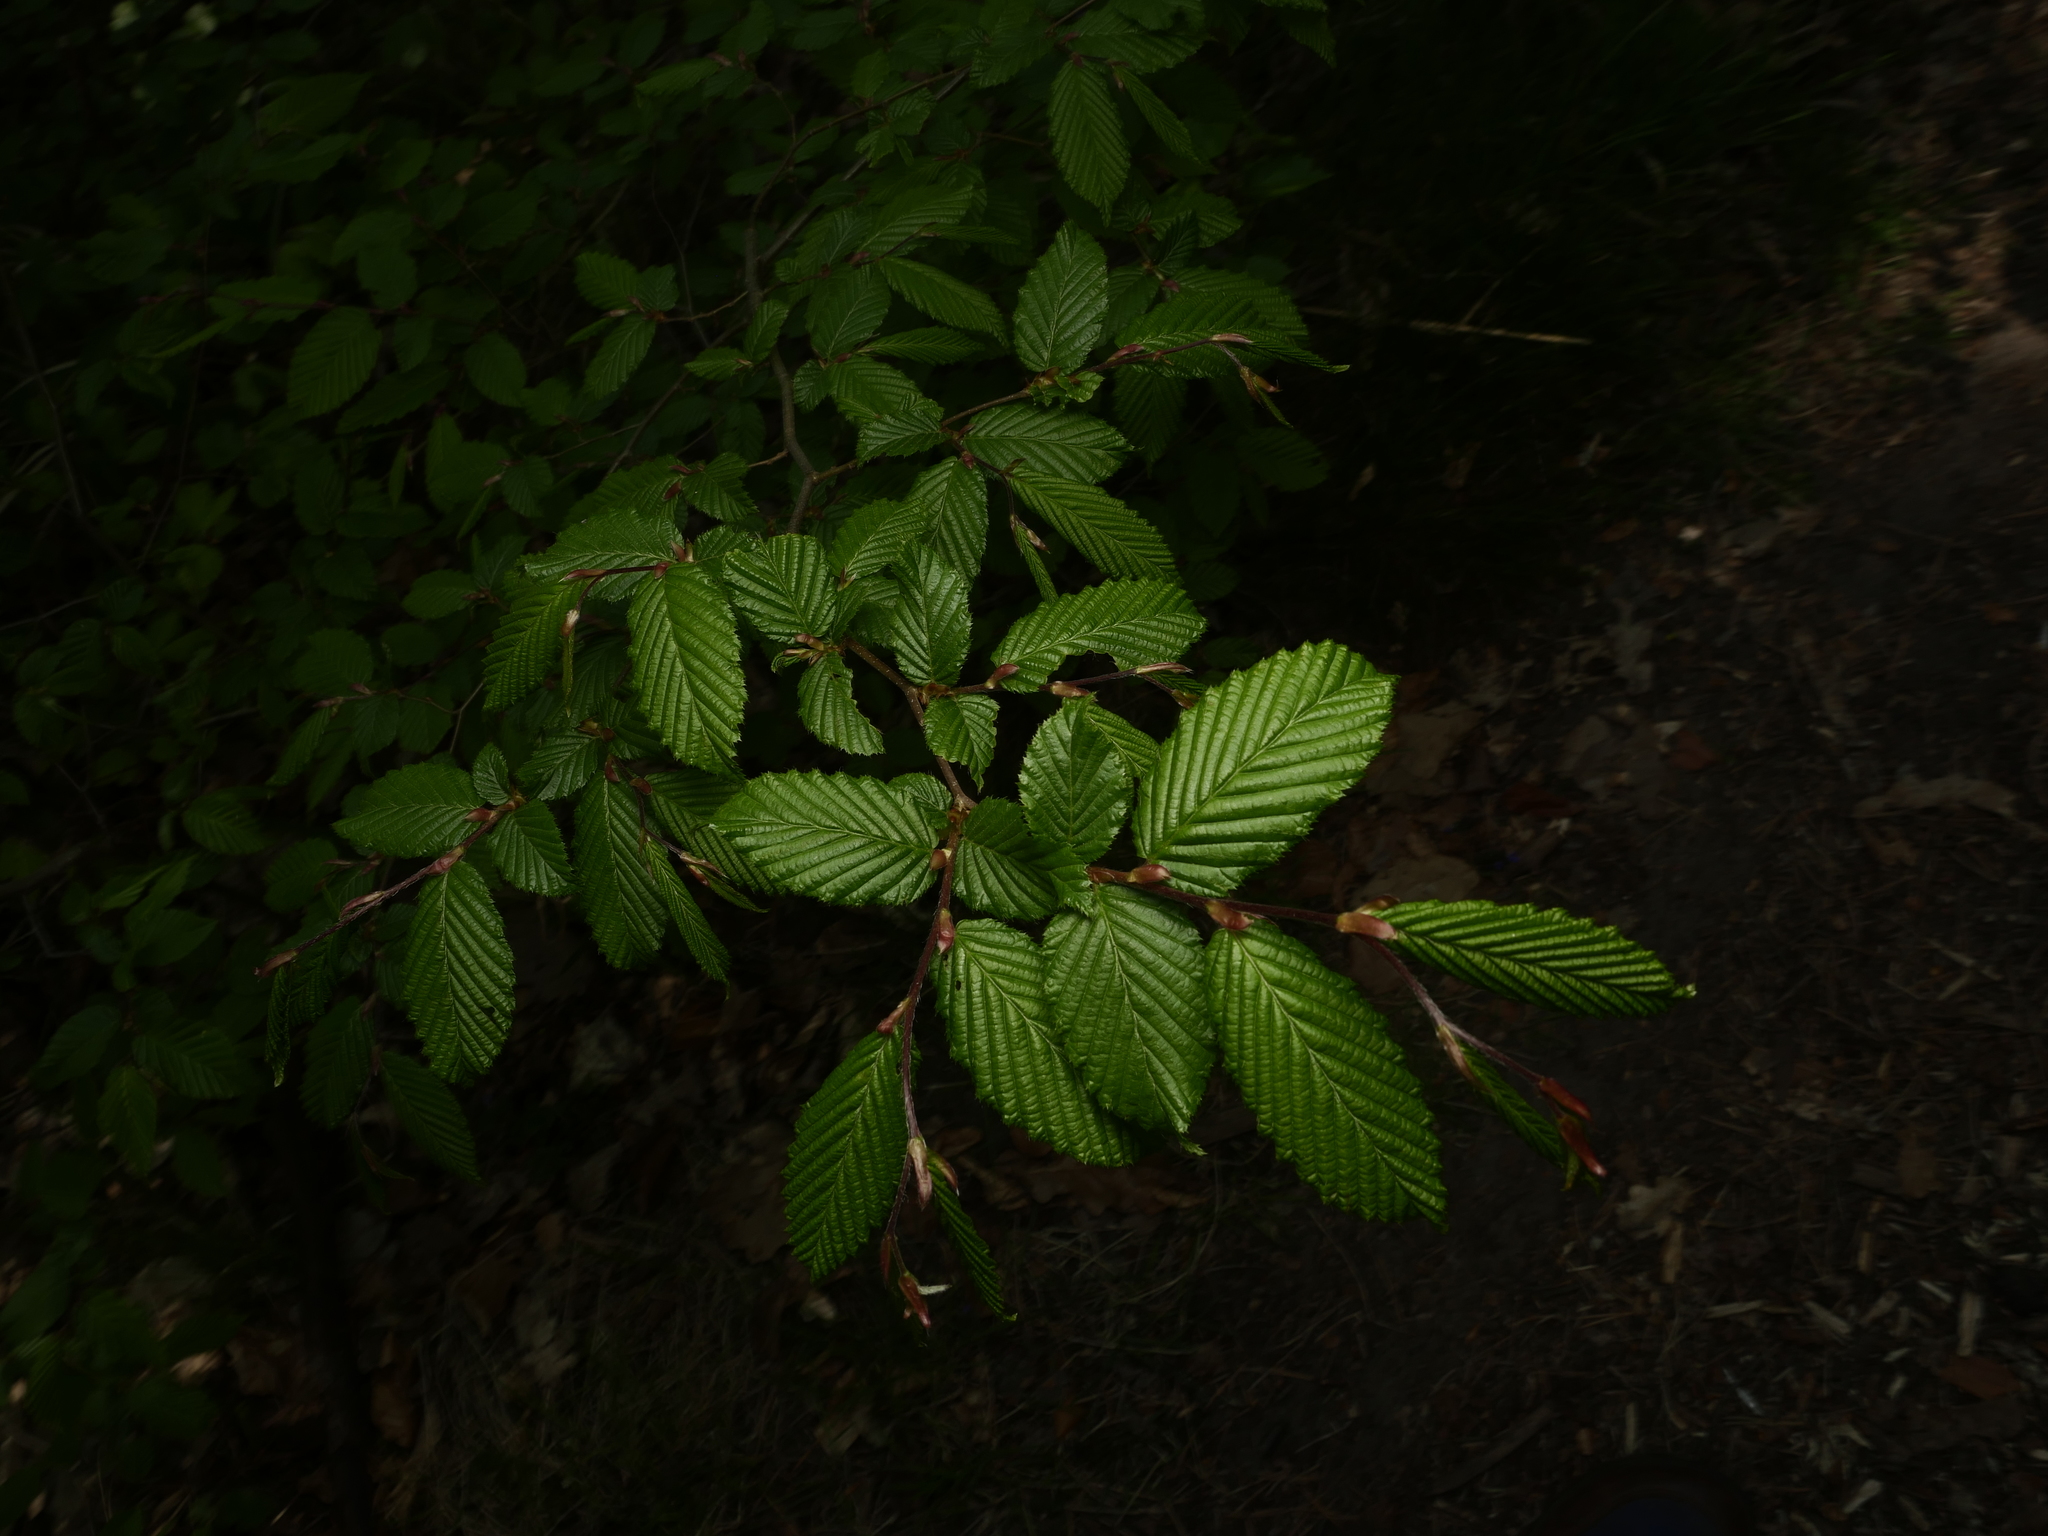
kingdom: Plantae
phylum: Tracheophyta
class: Magnoliopsida
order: Fagales
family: Betulaceae
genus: Carpinus
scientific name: Carpinus betulus
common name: Hornbeam
